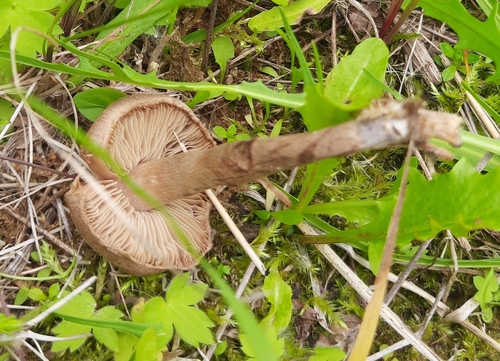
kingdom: Fungi
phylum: Basidiomycota
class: Agaricomycetes
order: Agaricales
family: Inocybaceae
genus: Inocybe
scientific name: Inocybe
